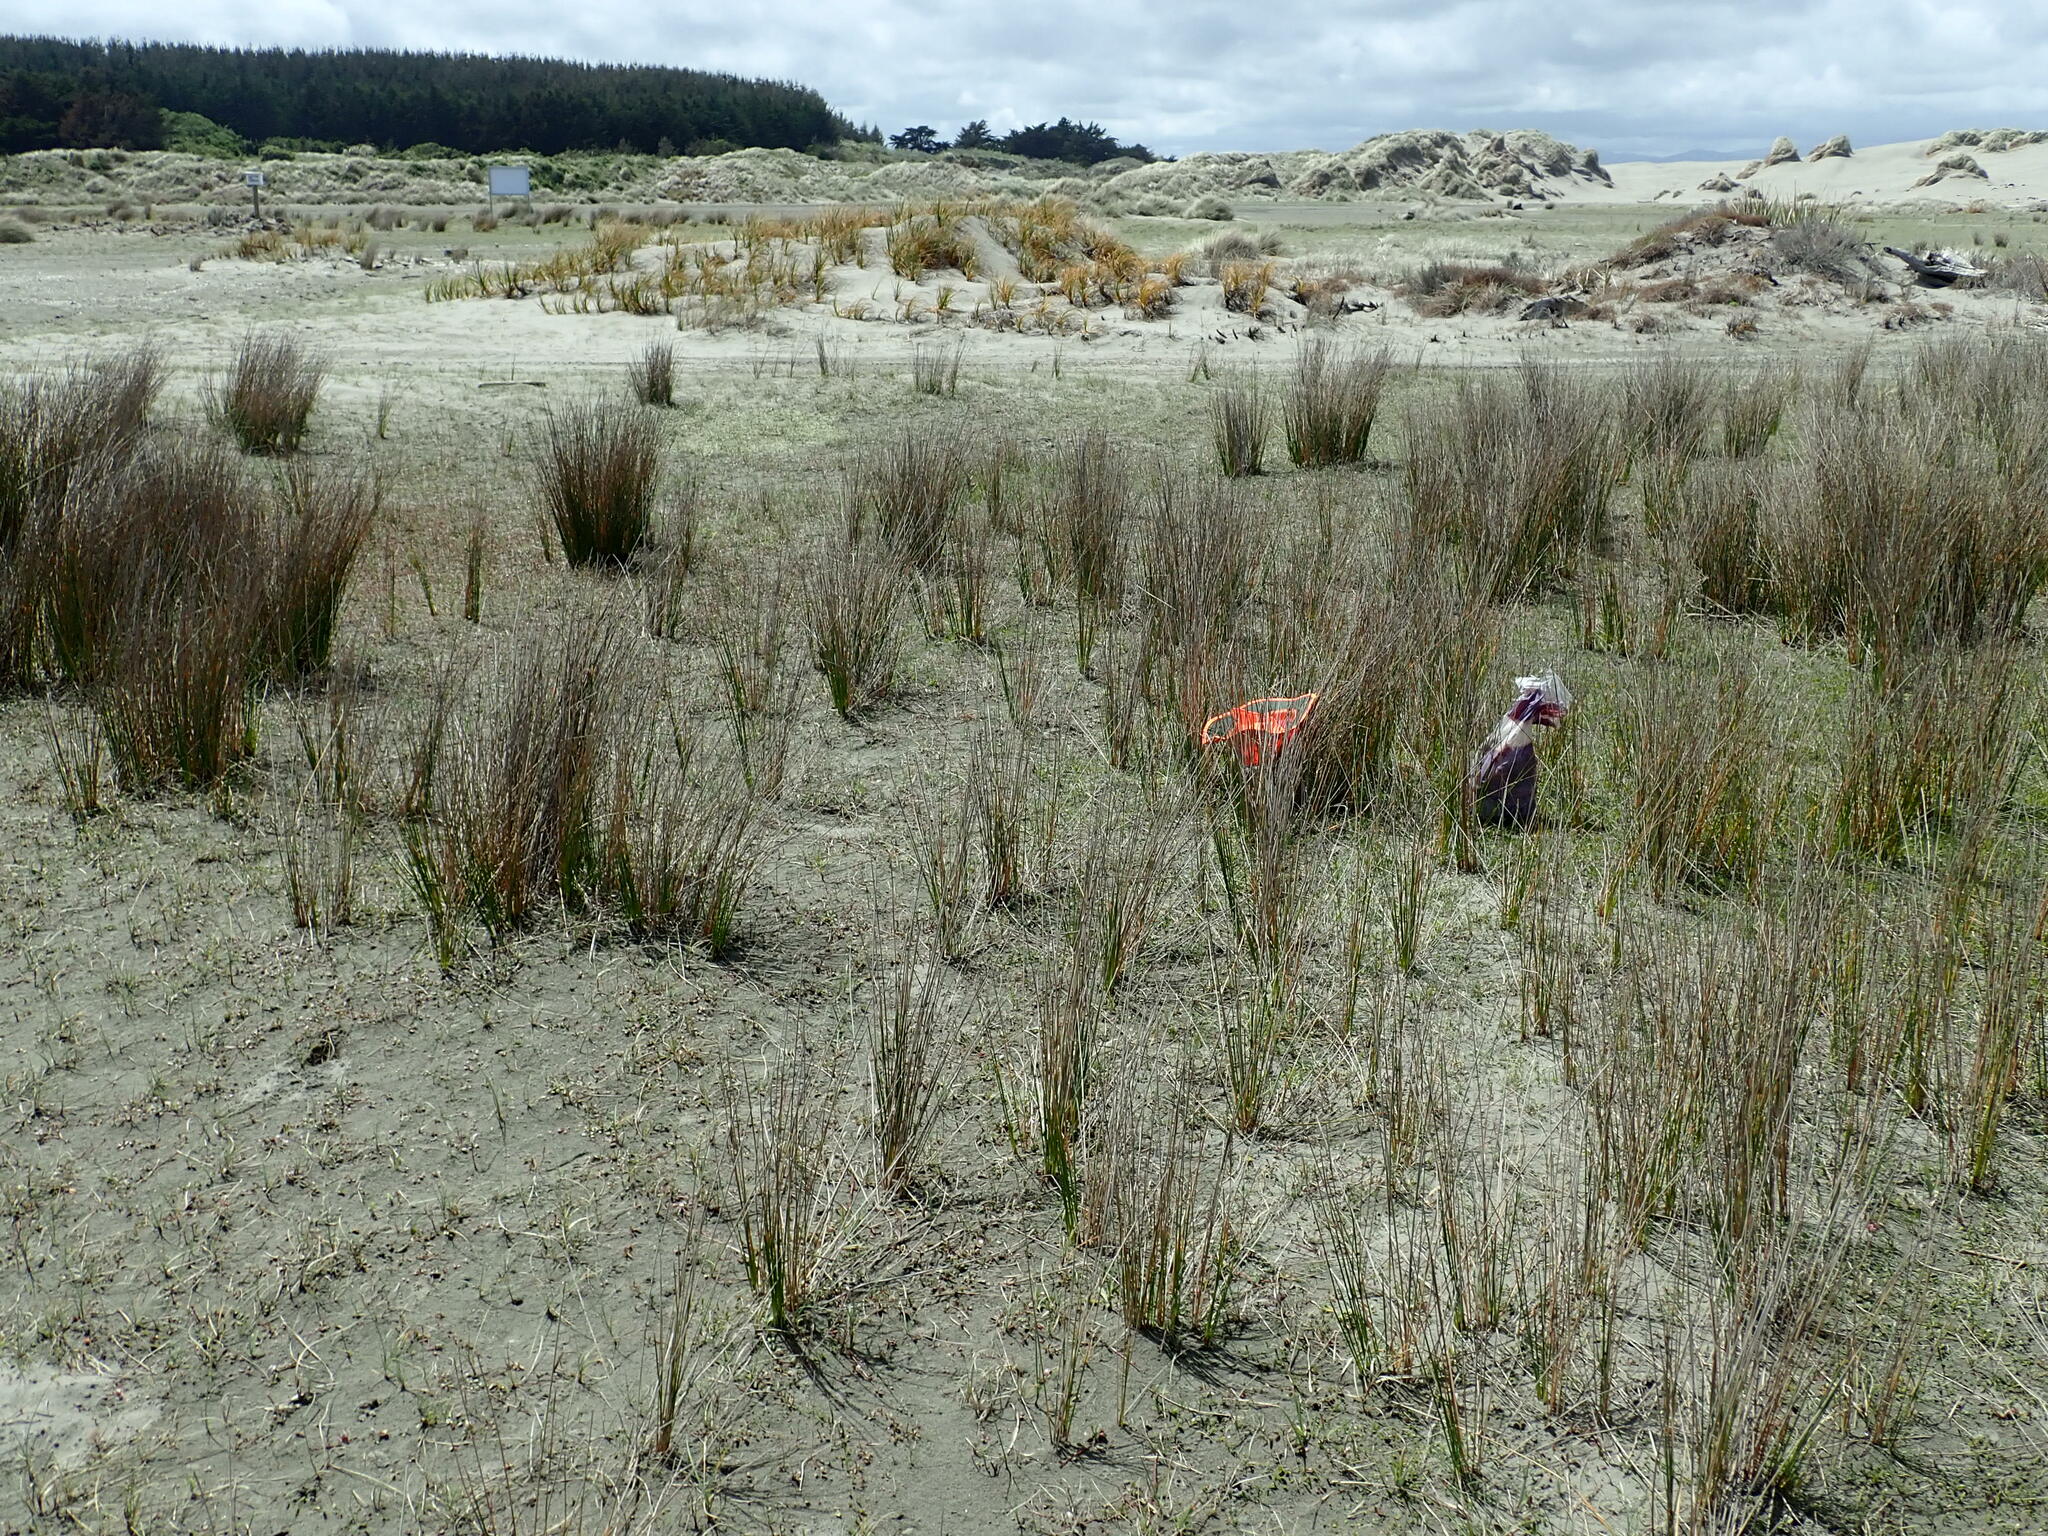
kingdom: Animalia
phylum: Arthropoda
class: Arachnida
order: Araneae
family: Lycosidae
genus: Hogna
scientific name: Hogna crispipes
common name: Wolf spider
